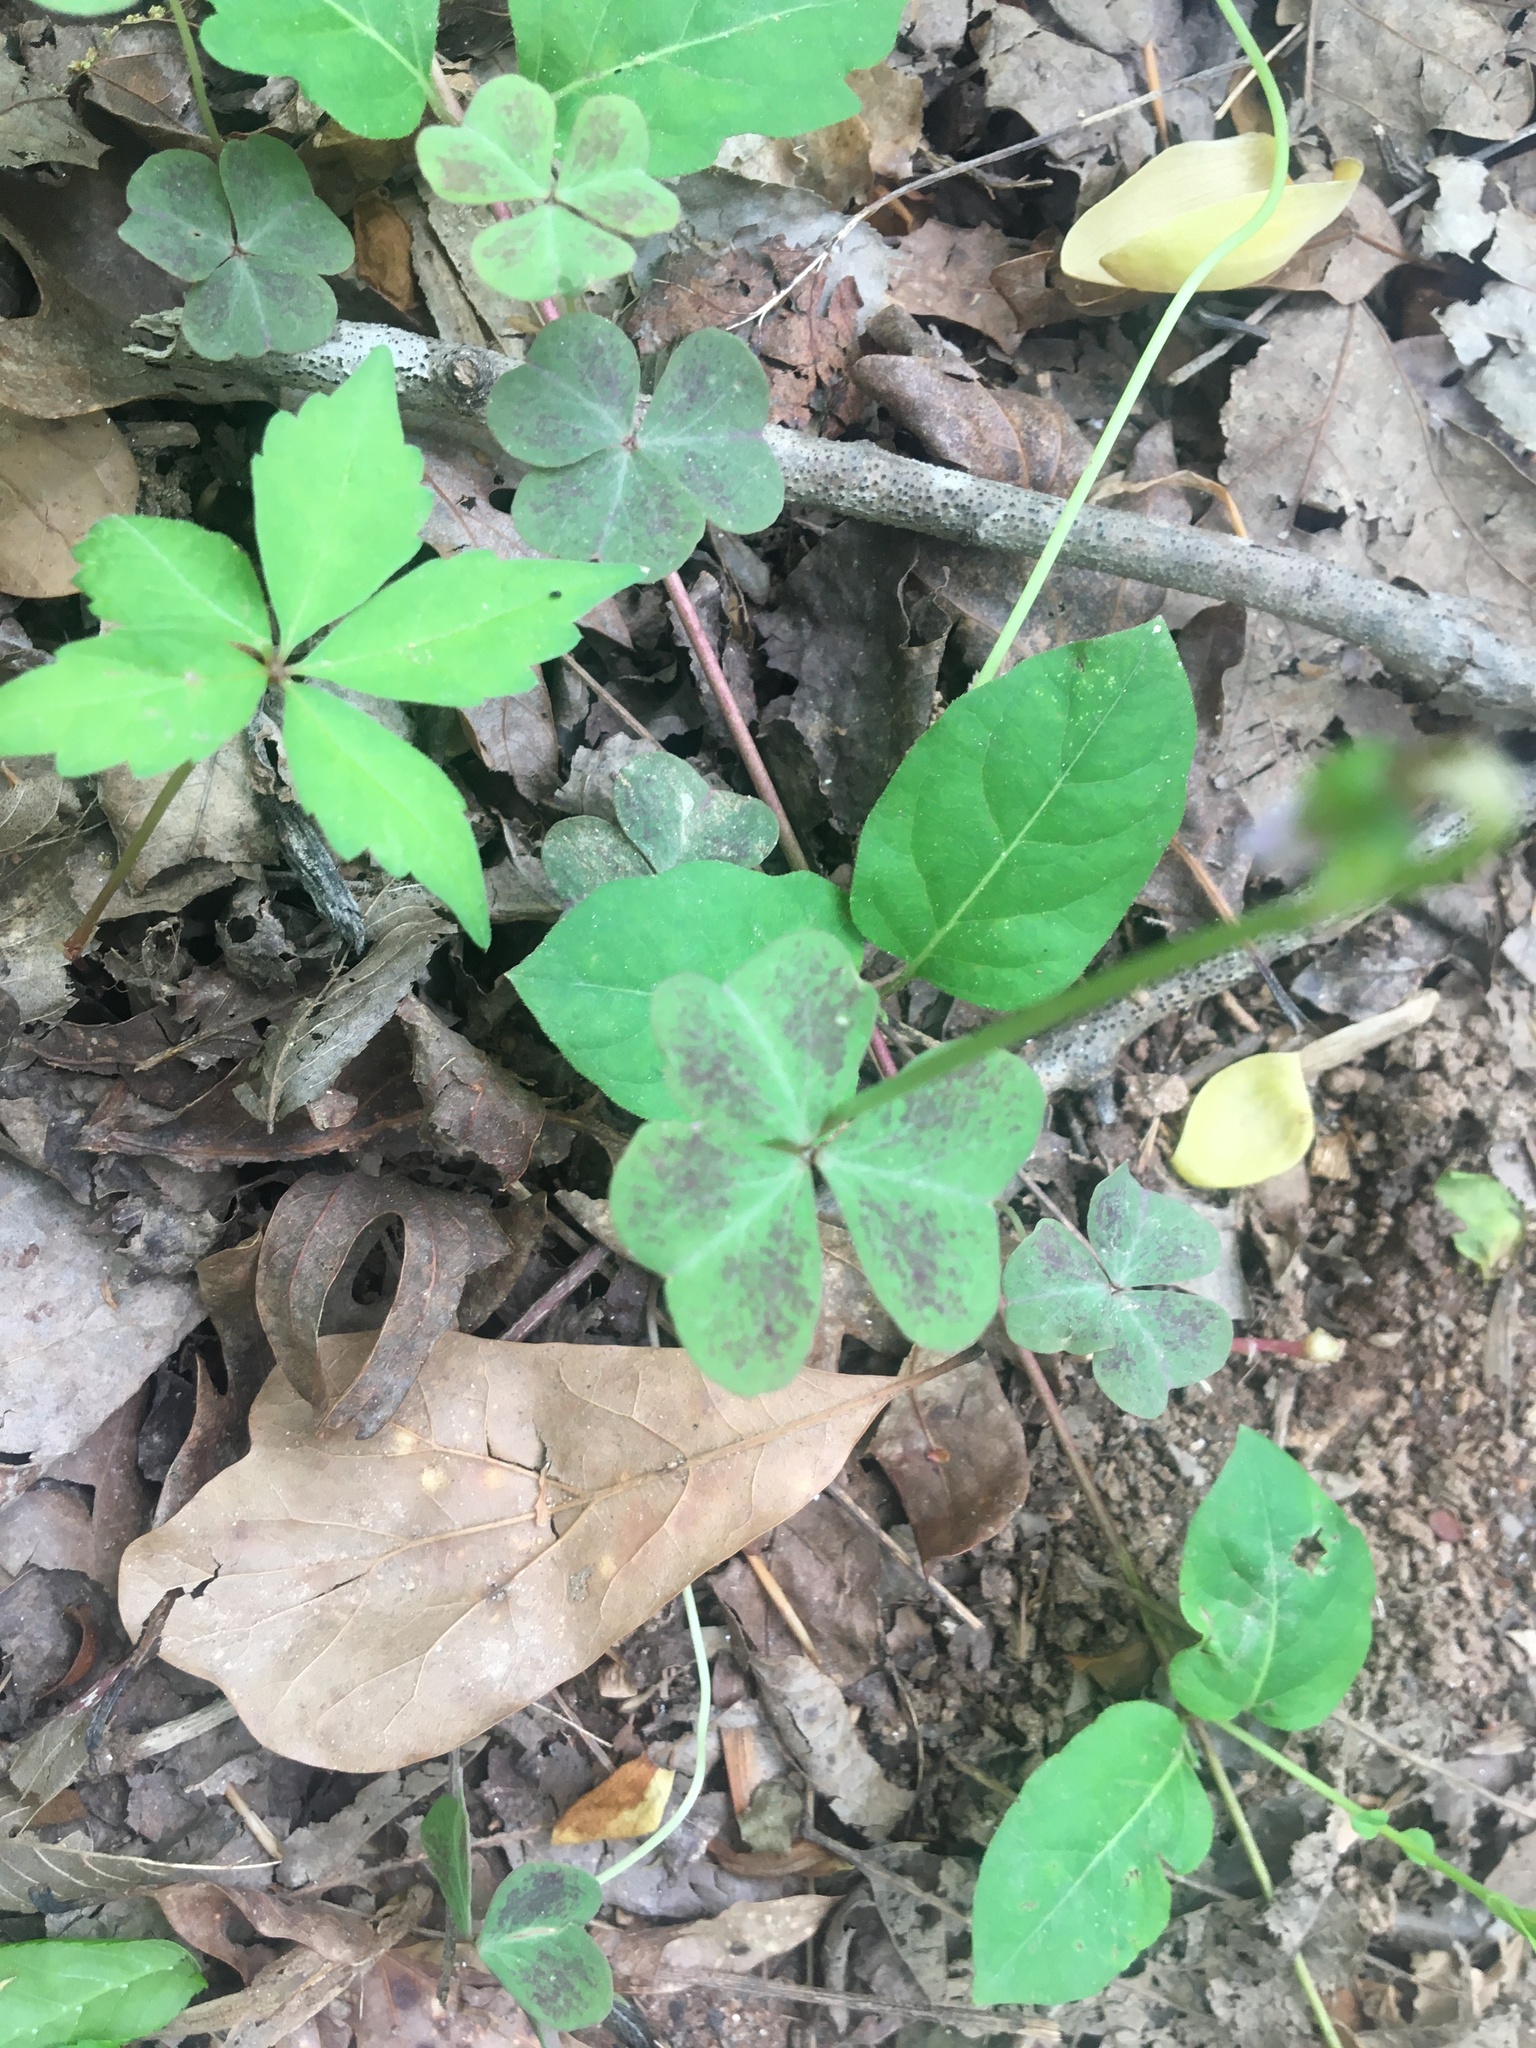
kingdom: Plantae
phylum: Tracheophyta
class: Magnoliopsida
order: Oxalidales
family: Oxalidaceae
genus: Oxalis
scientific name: Oxalis violacea
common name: Violet wood-sorrel
